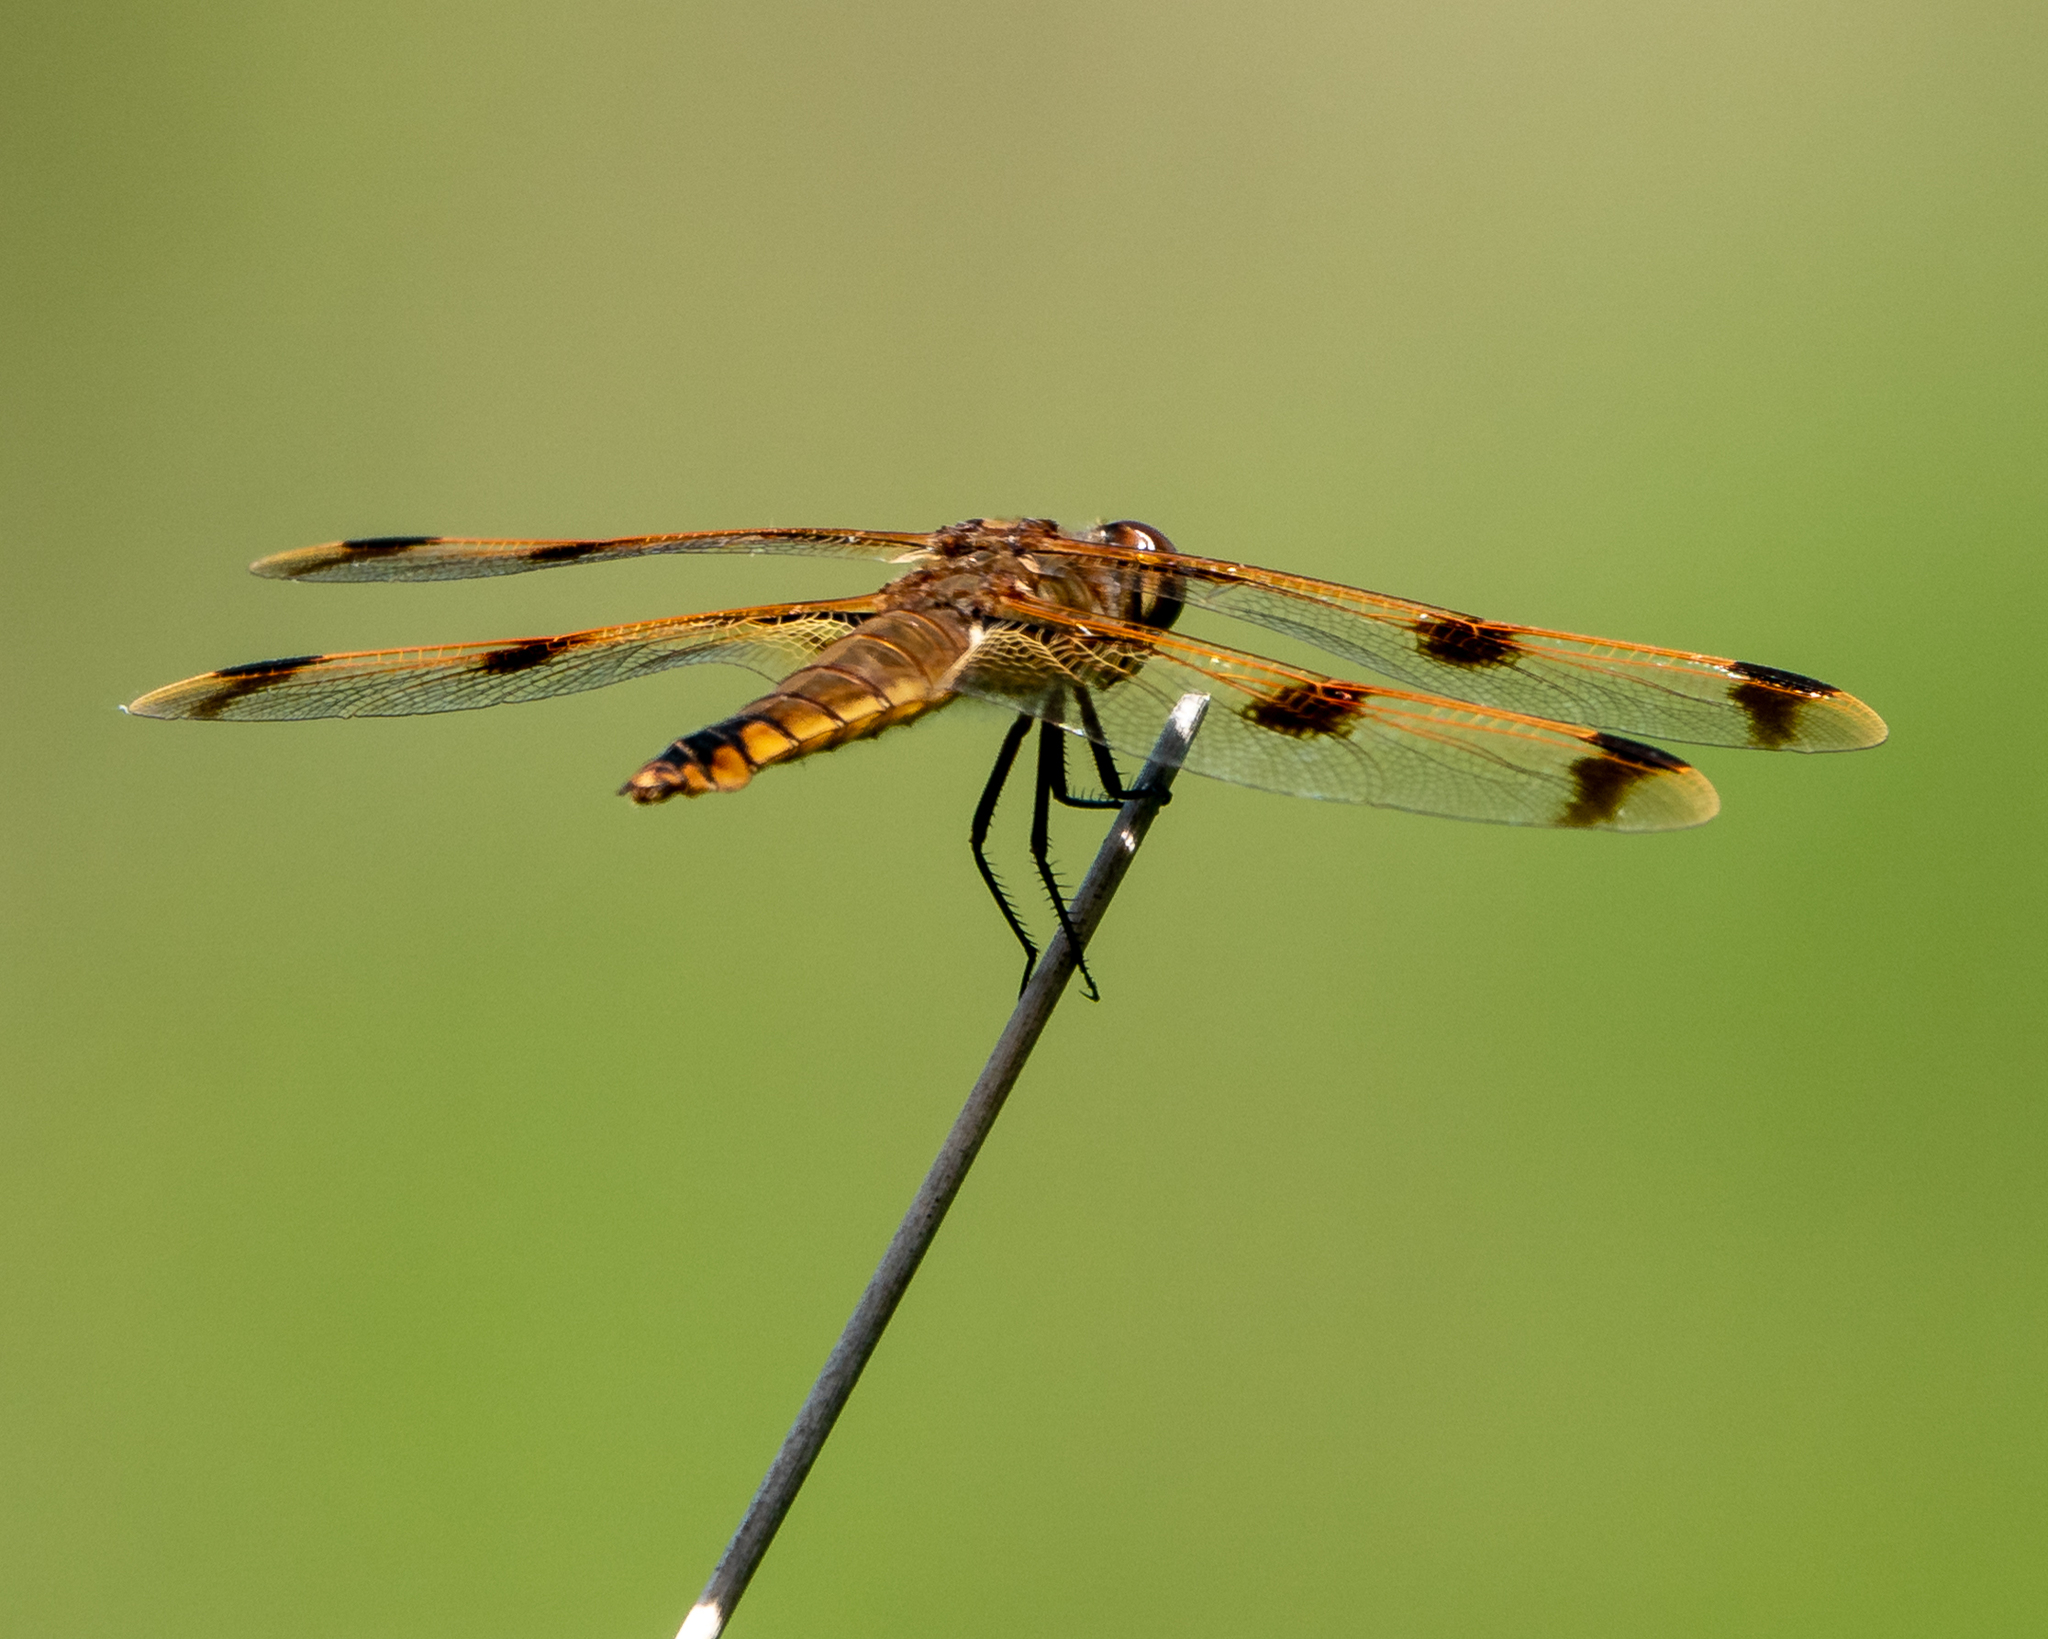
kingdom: Animalia
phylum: Arthropoda
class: Insecta
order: Odonata
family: Libellulidae
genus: Libellula
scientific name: Libellula semifasciata
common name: Painted skimmer
